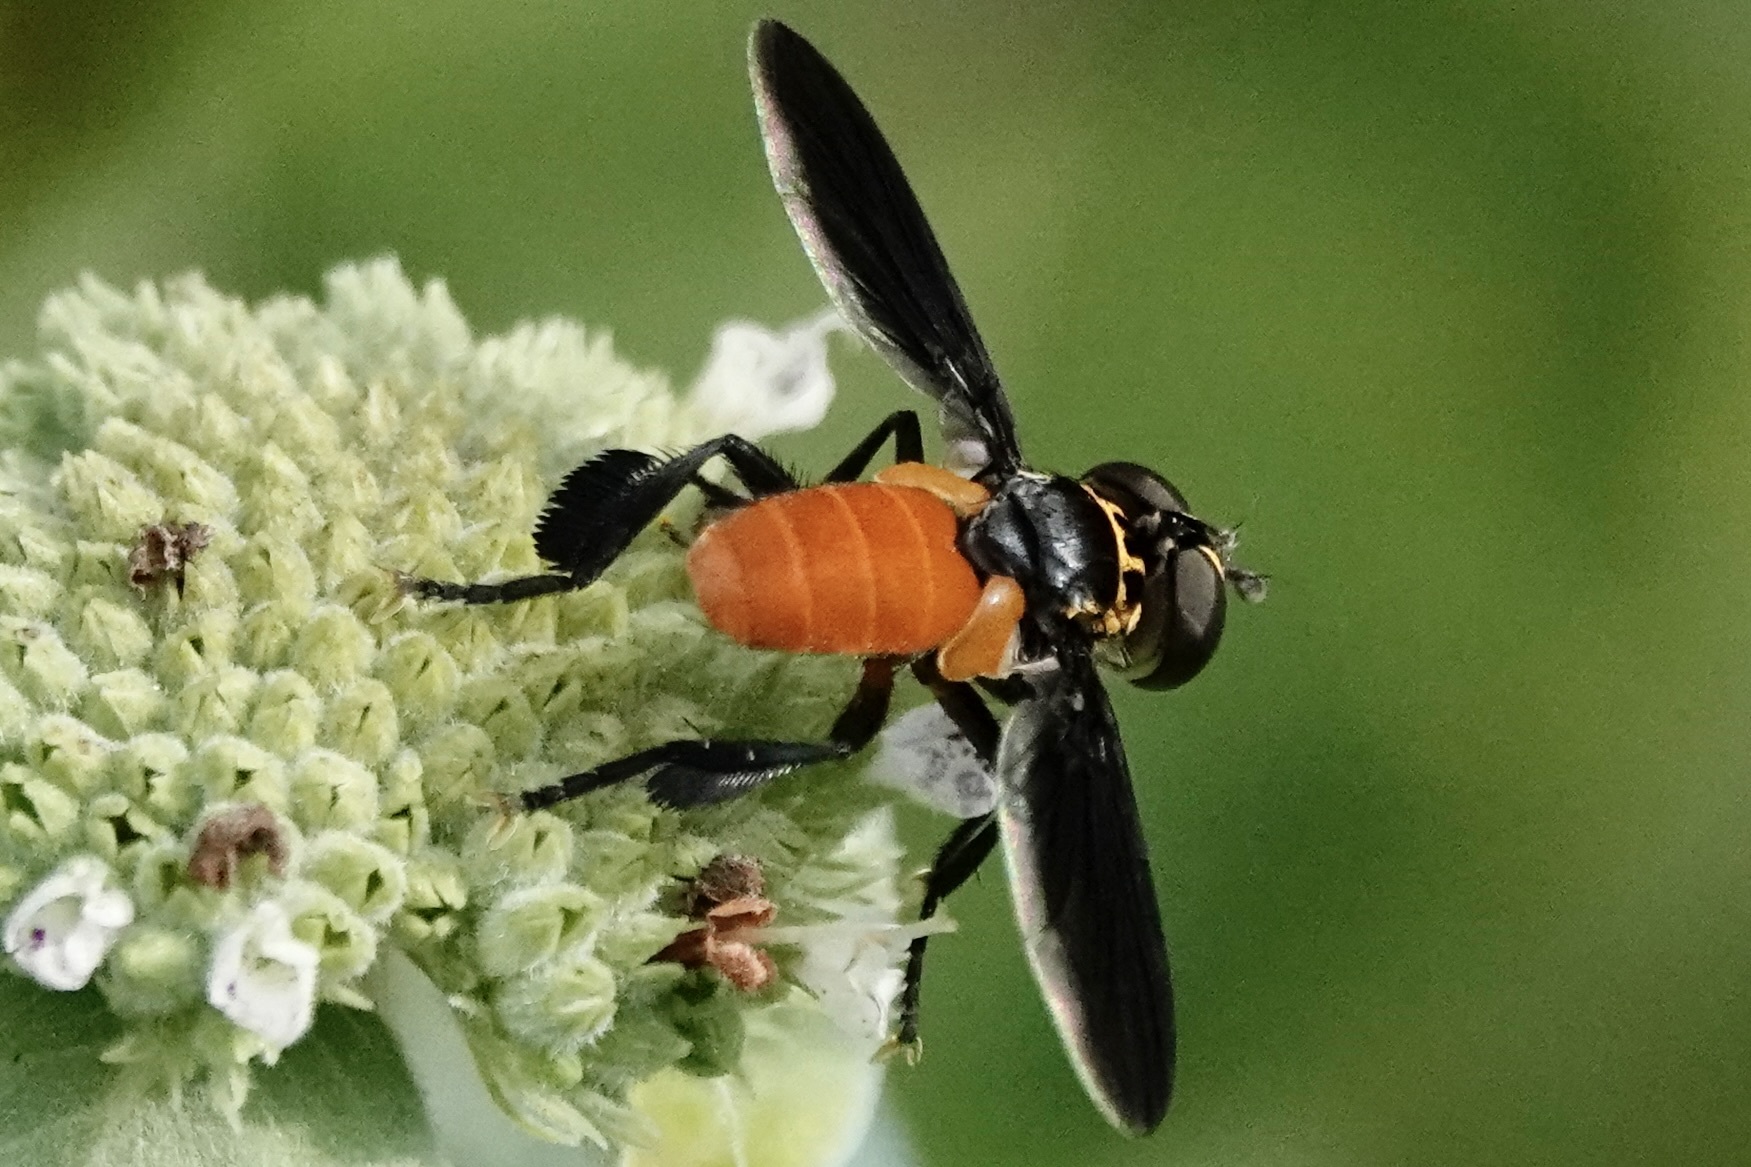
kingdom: Animalia
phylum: Arthropoda
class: Insecta
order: Diptera
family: Tachinidae
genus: Trichopoda
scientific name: Trichopoda pennipes
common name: Tachinid fly
